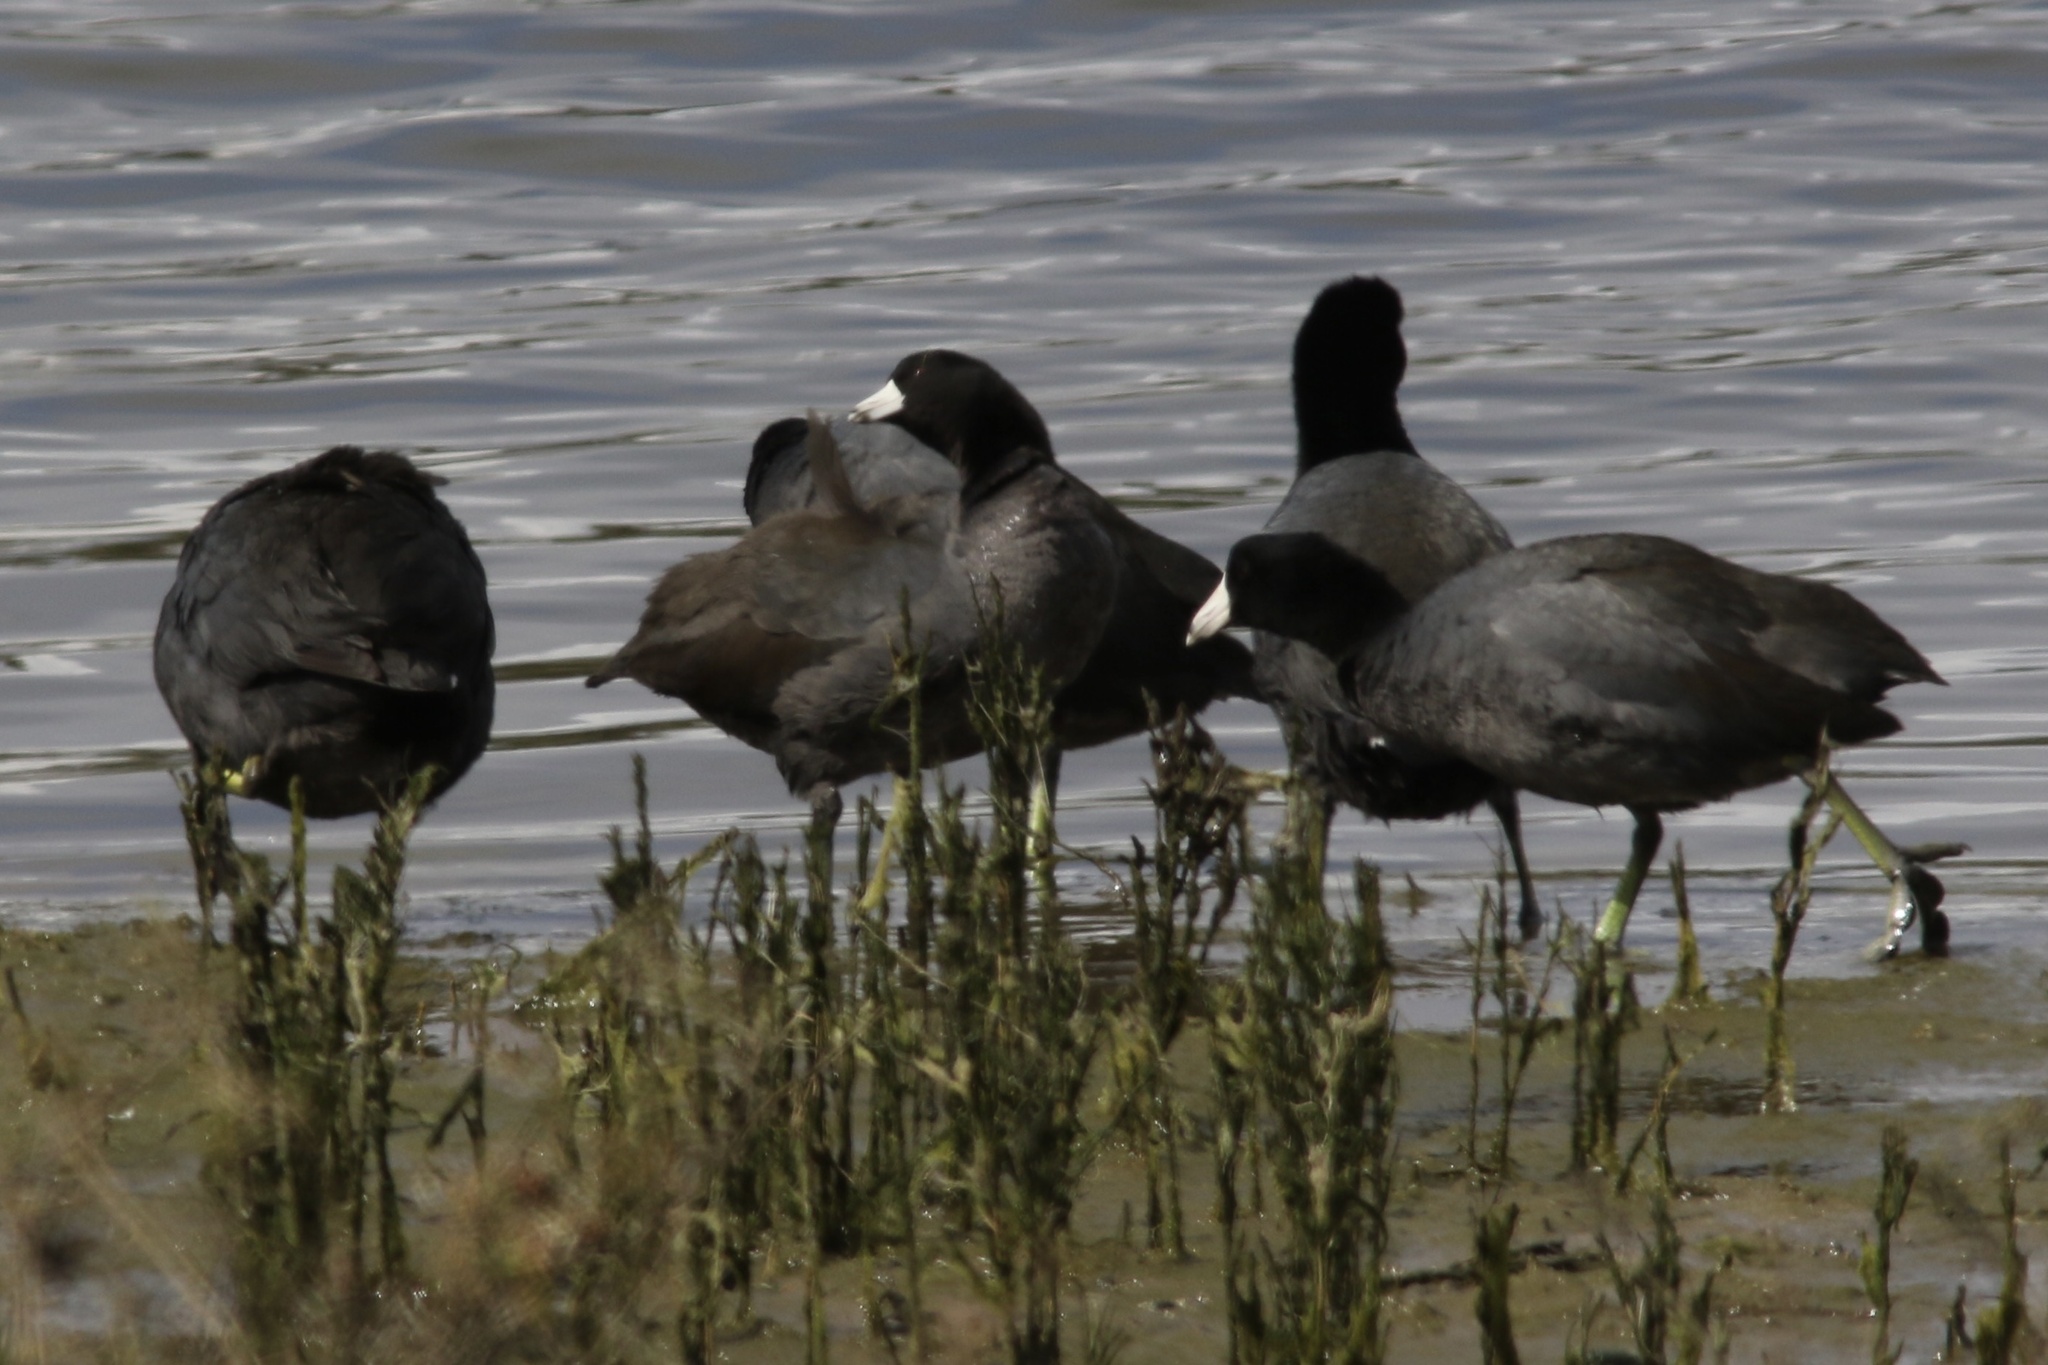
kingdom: Animalia
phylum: Chordata
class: Aves
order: Gruiformes
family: Rallidae
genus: Fulica
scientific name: Fulica americana
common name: American coot
